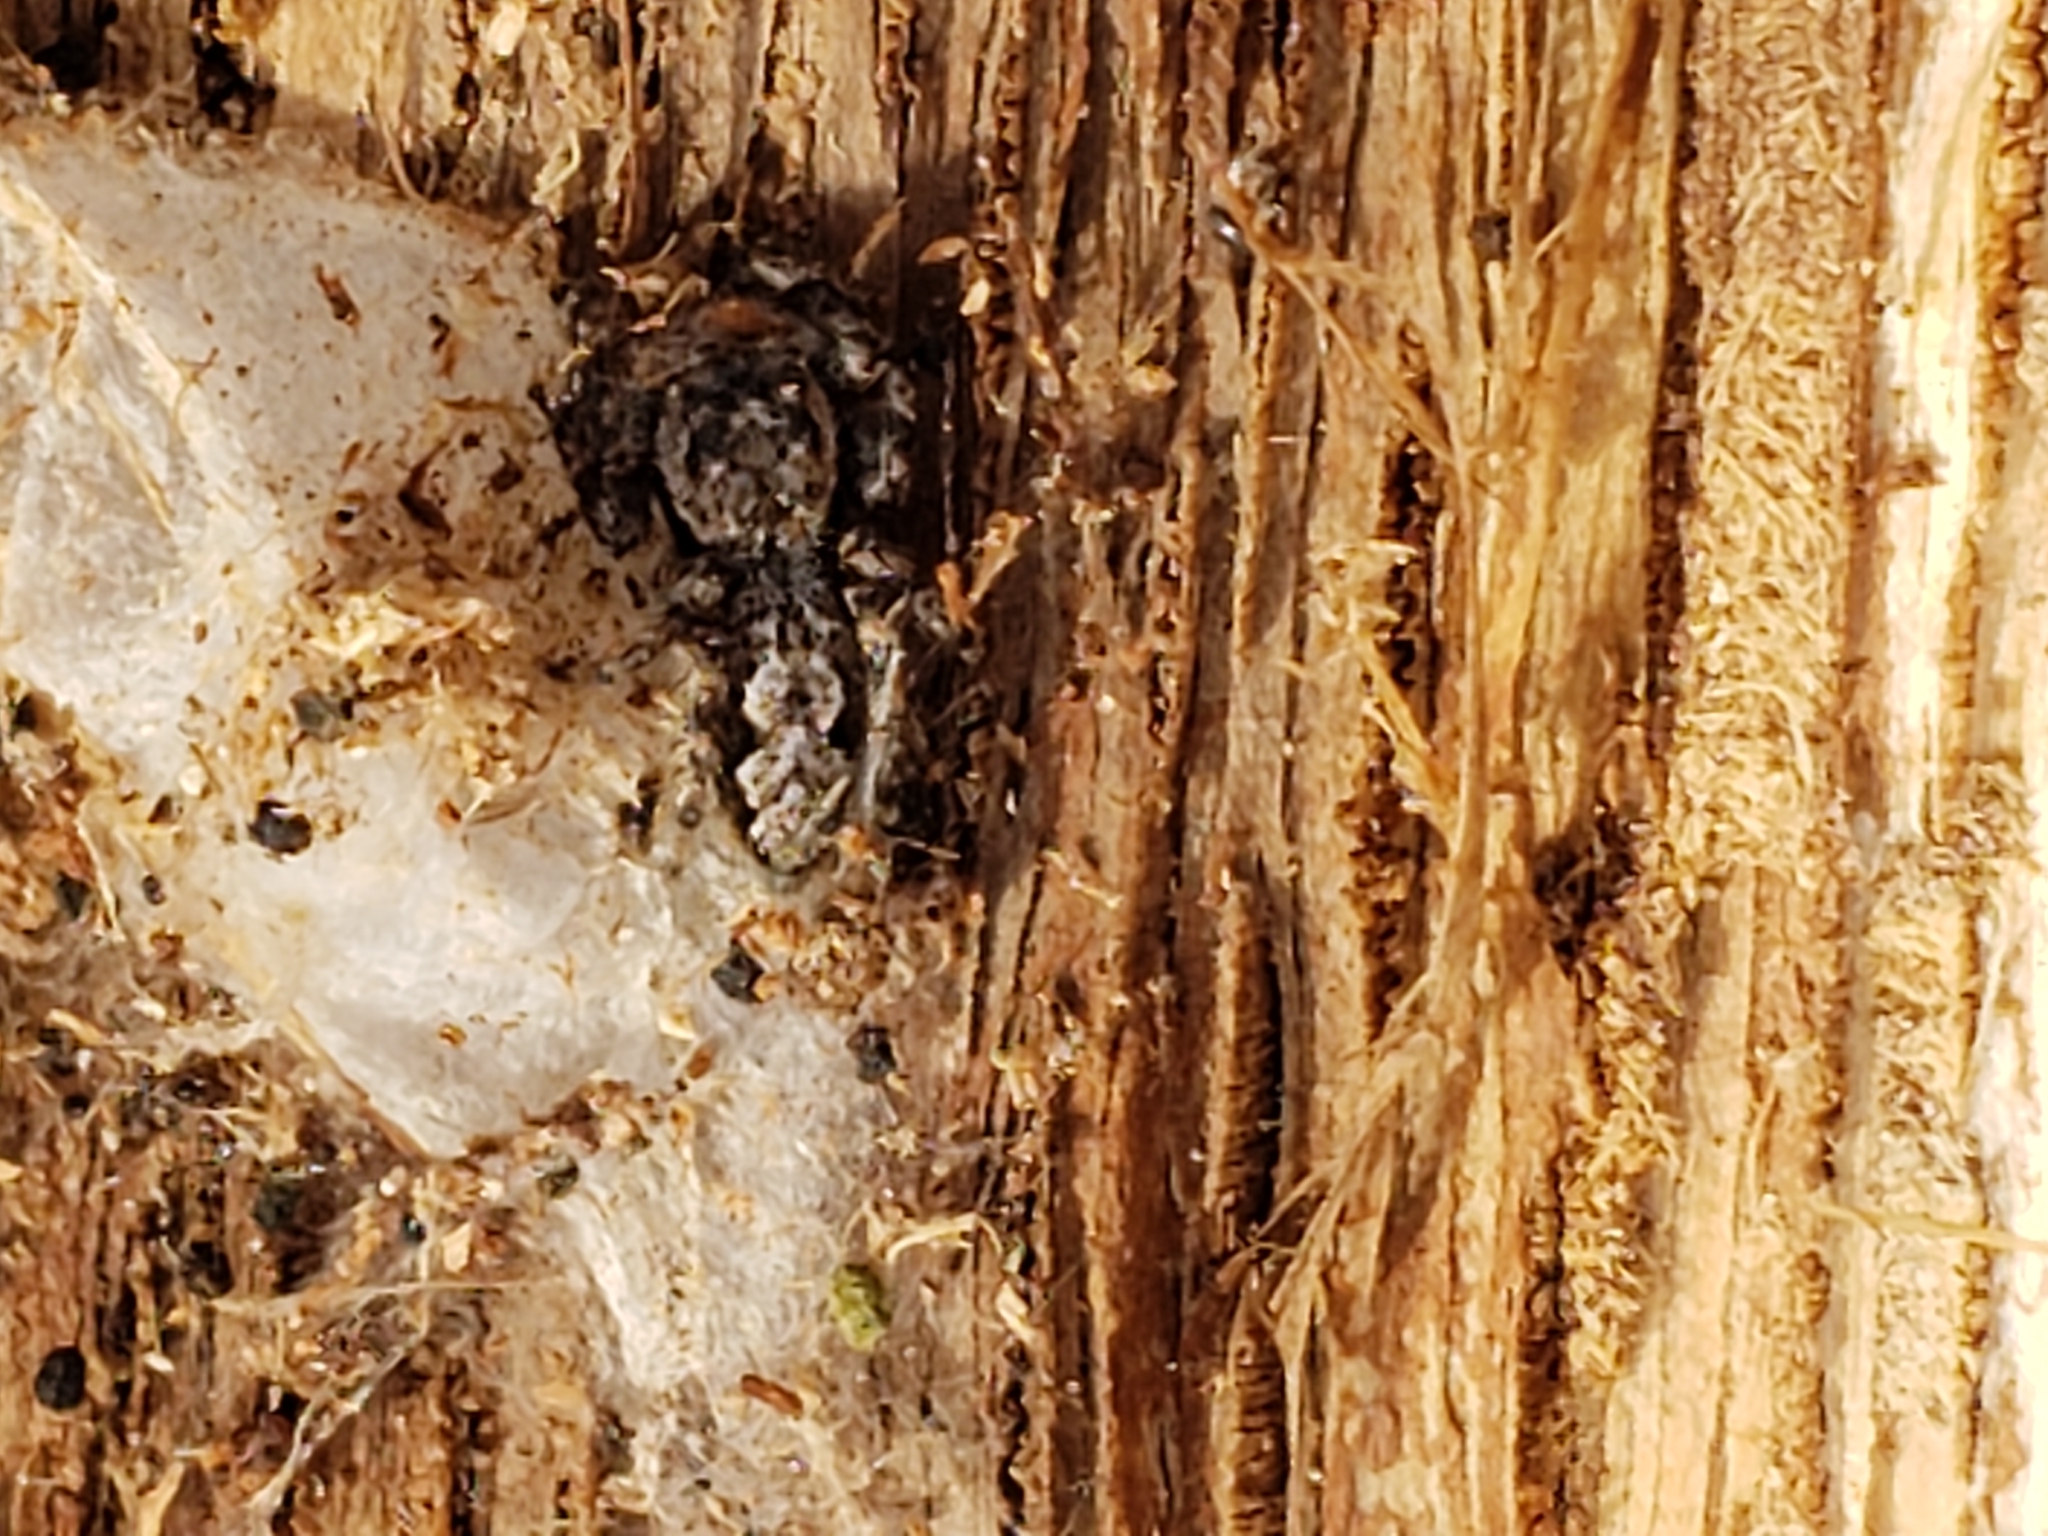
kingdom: Animalia
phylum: Arthropoda
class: Arachnida
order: Araneae
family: Salticidae
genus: Platycryptus
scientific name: Platycryptus undatus
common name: Tan jumping spider
